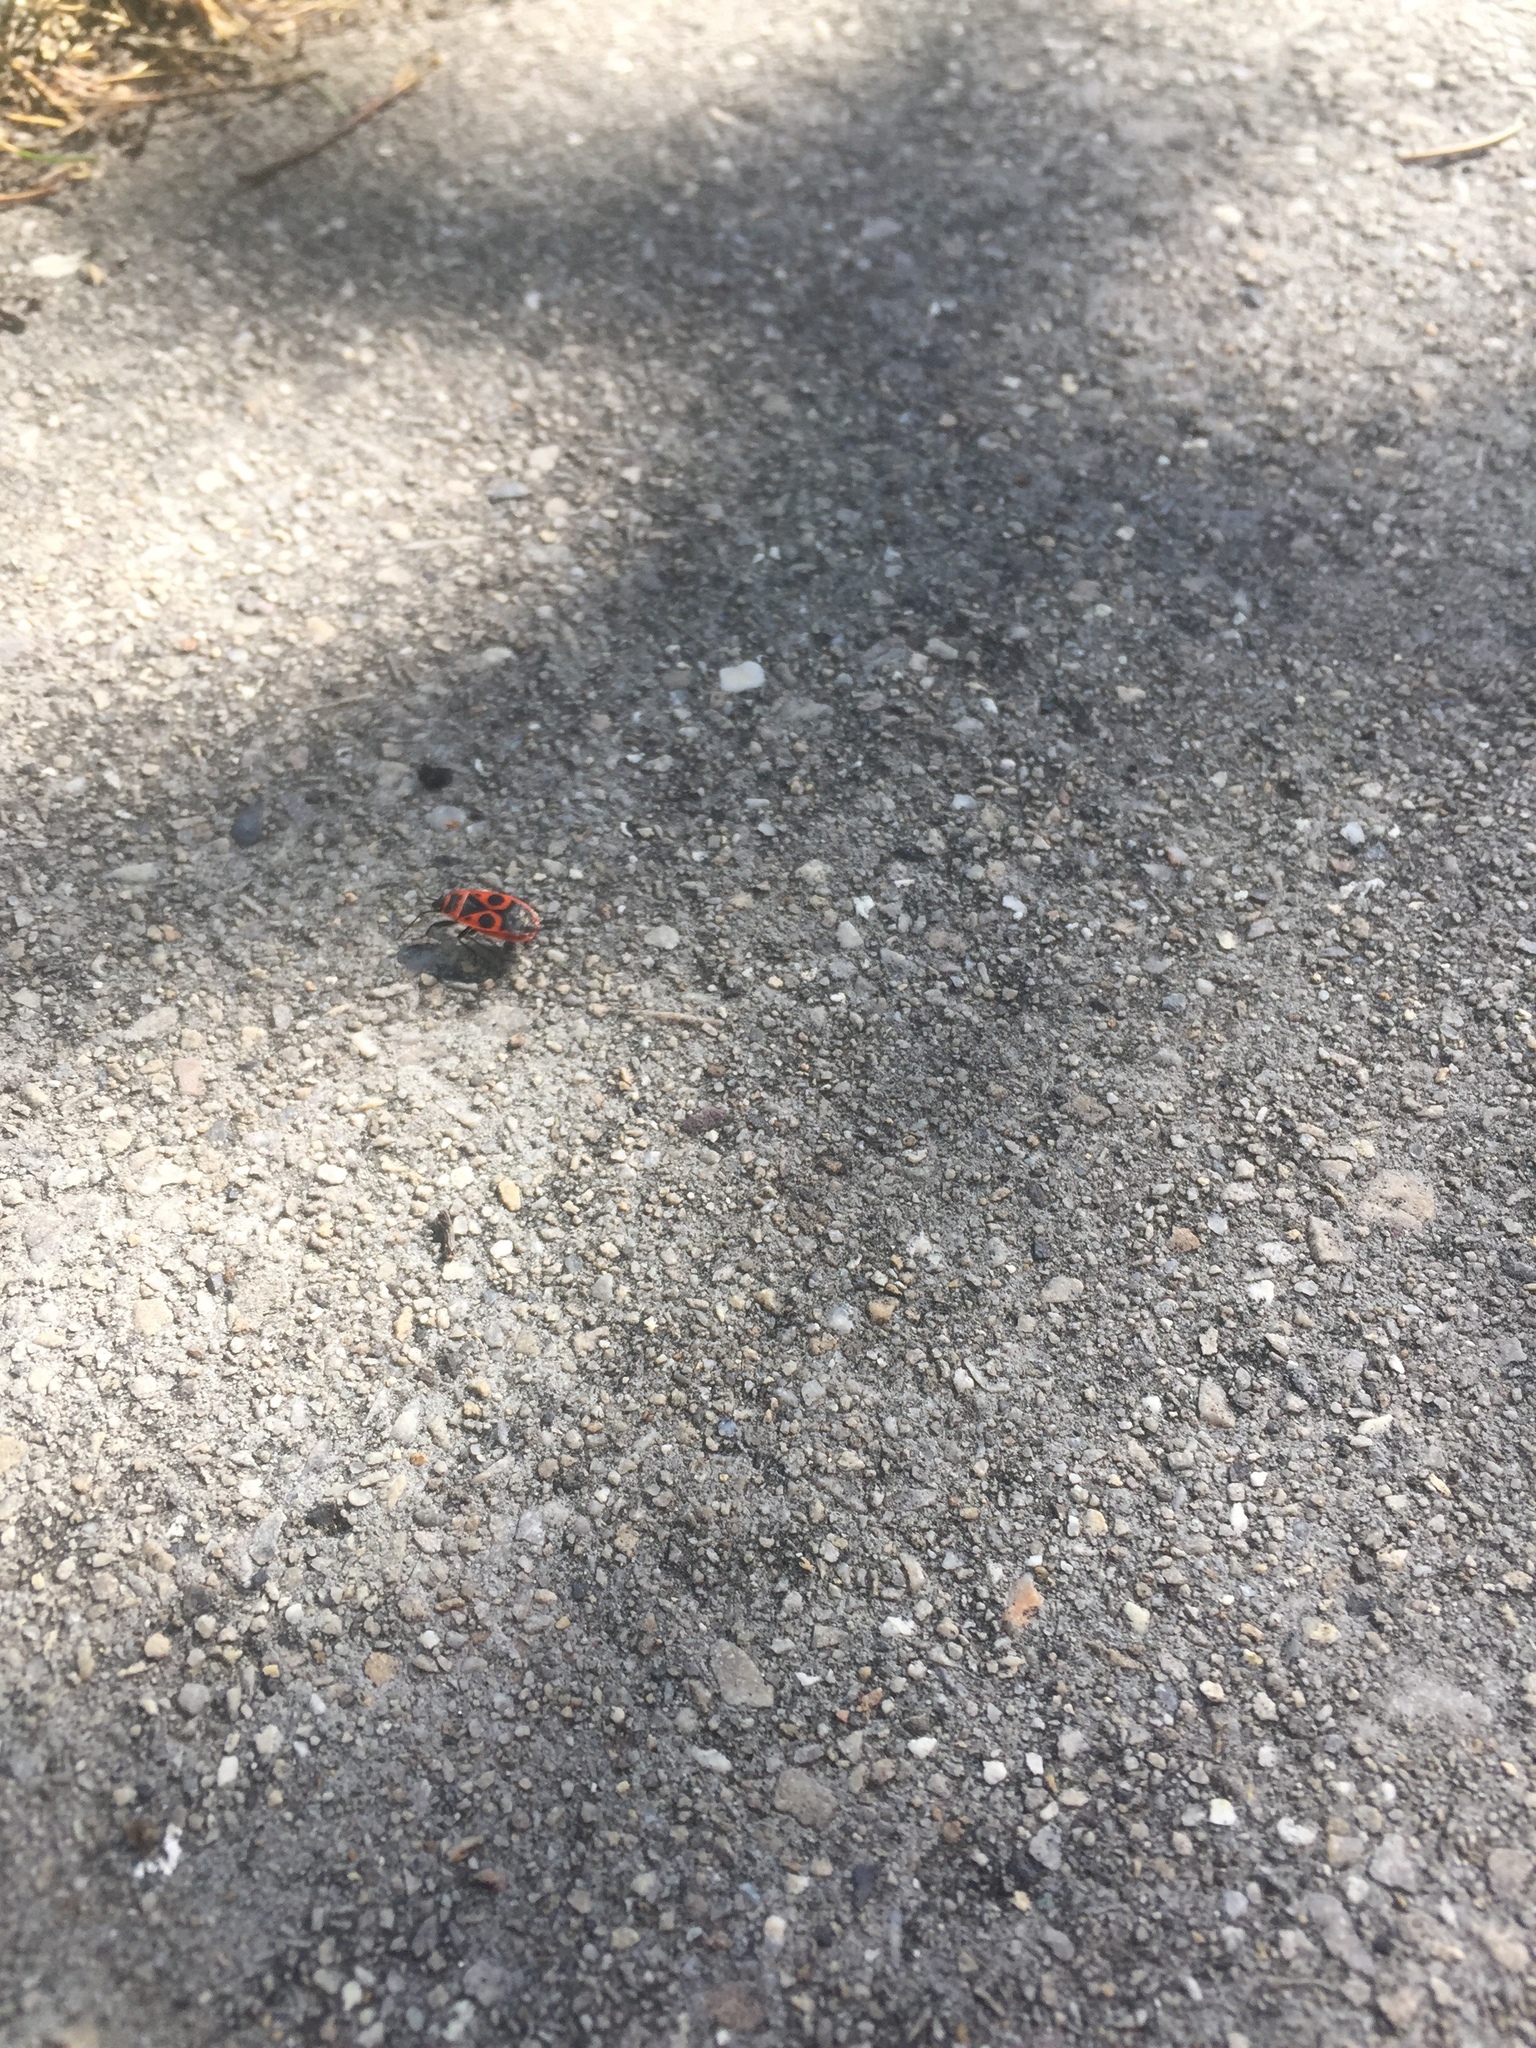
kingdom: Animalia
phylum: Arthropoda
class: Insecta
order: Hemiptera
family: Pyrrhocoridae
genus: Pyrrhocoris
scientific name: Pyrrhocoris apterus
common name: Firebug
